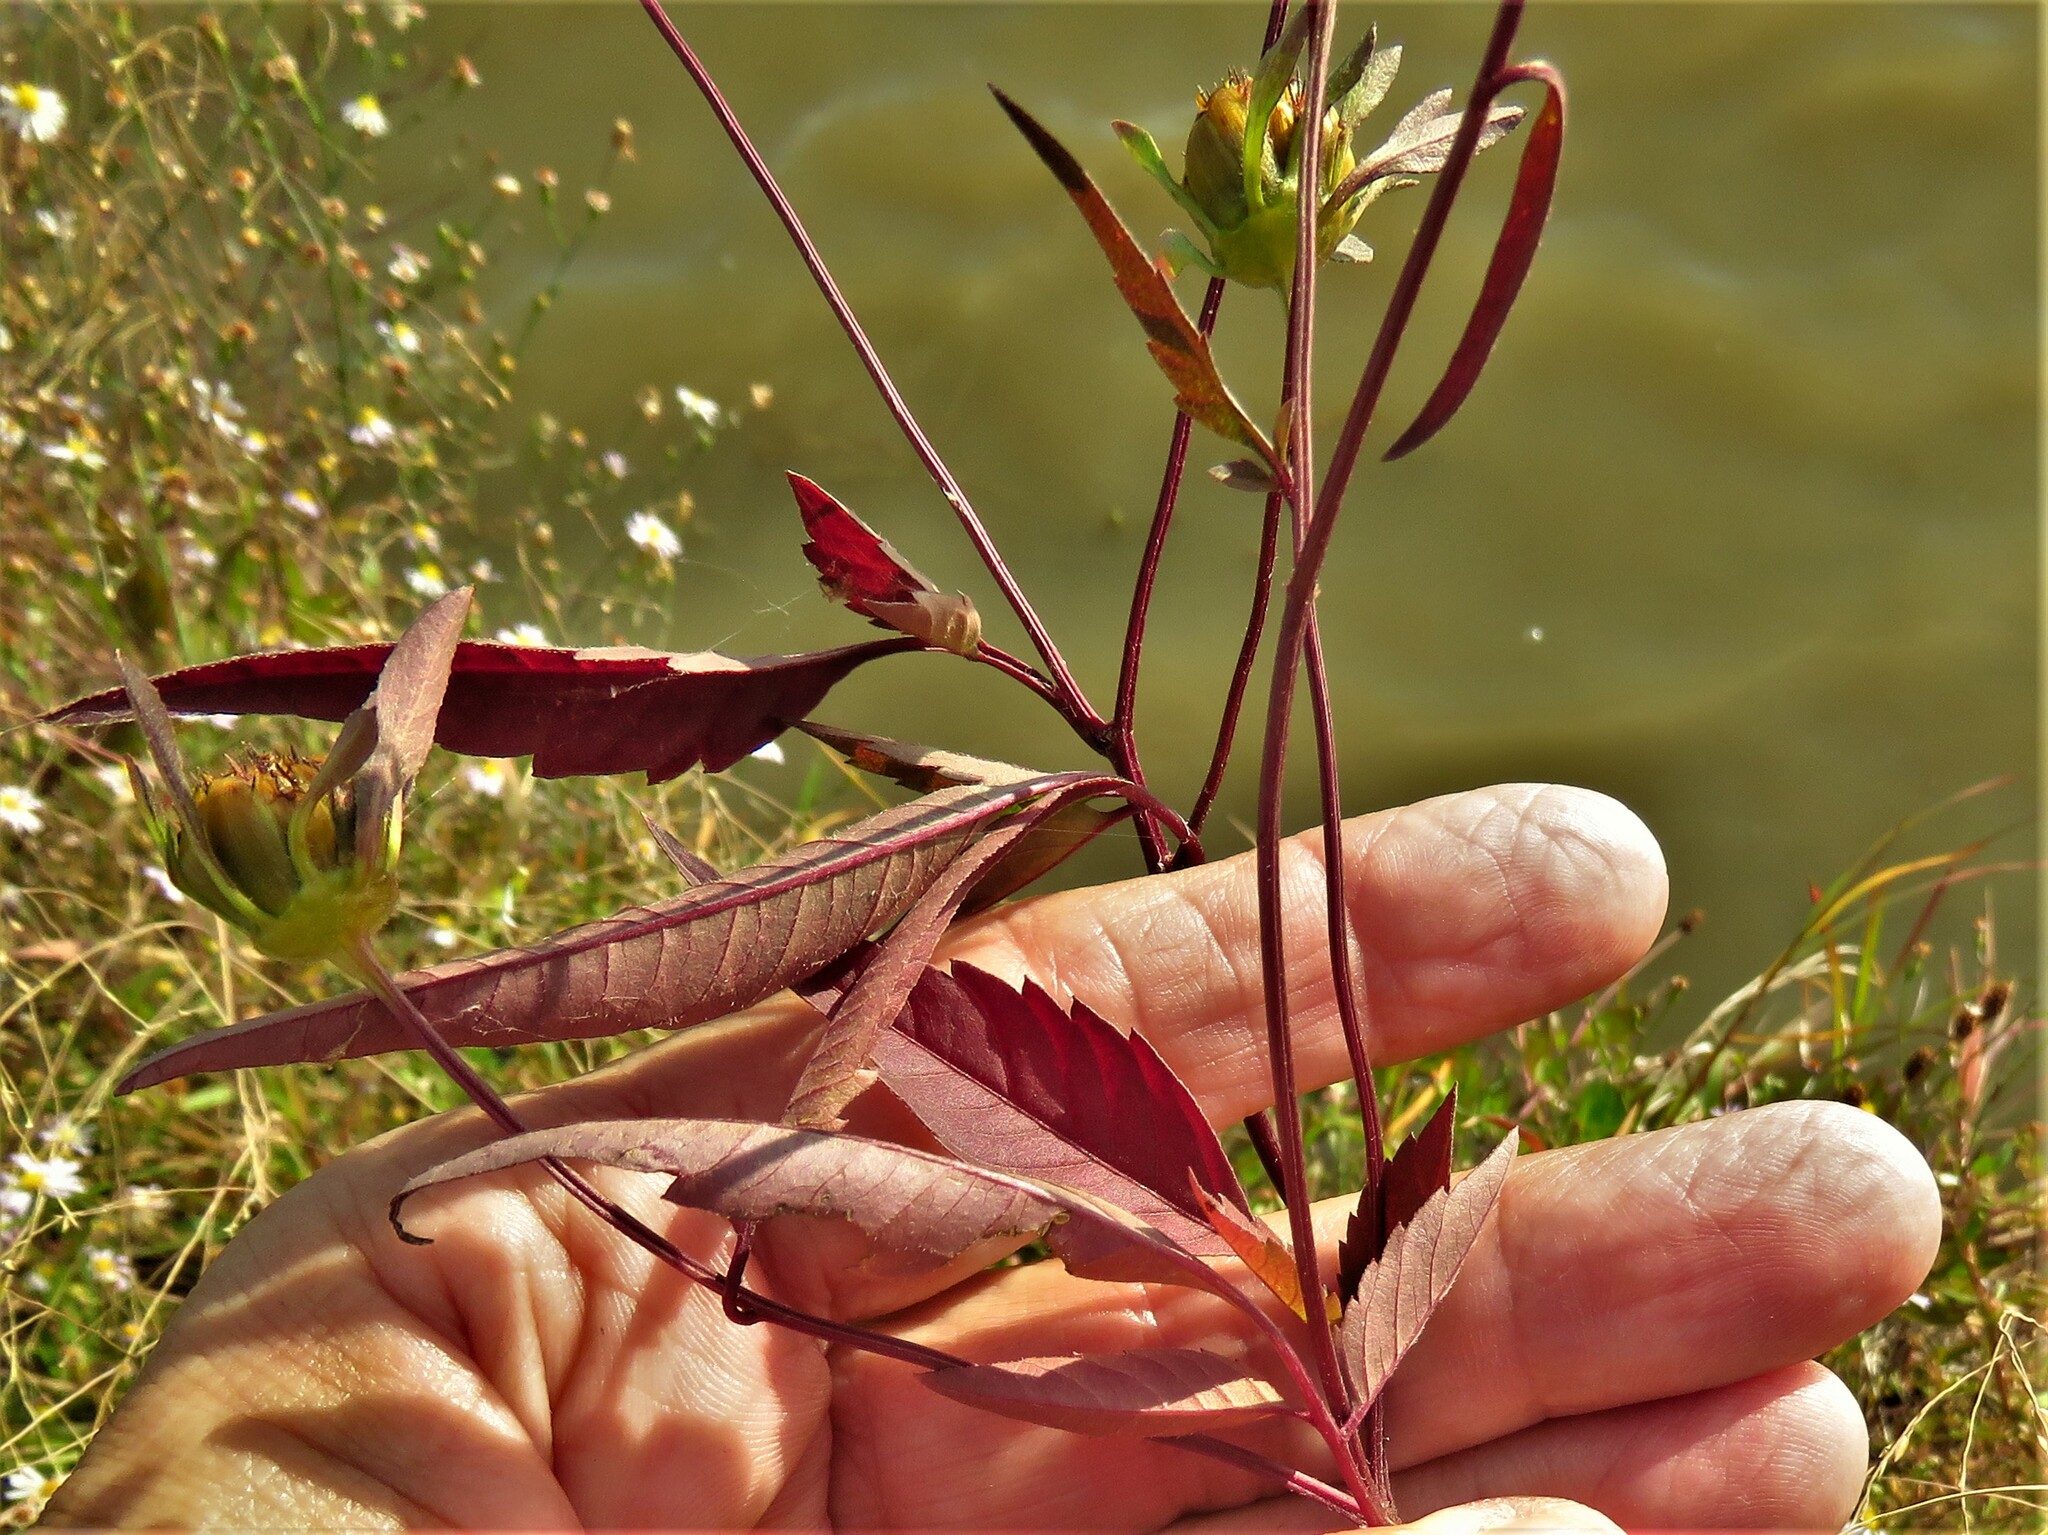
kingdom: Plantae
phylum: Tracheophyta
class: Magnoliopsida
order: Asterales
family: Asteraceae
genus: Bidens
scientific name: Bidens frondosa
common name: Beggarticks
